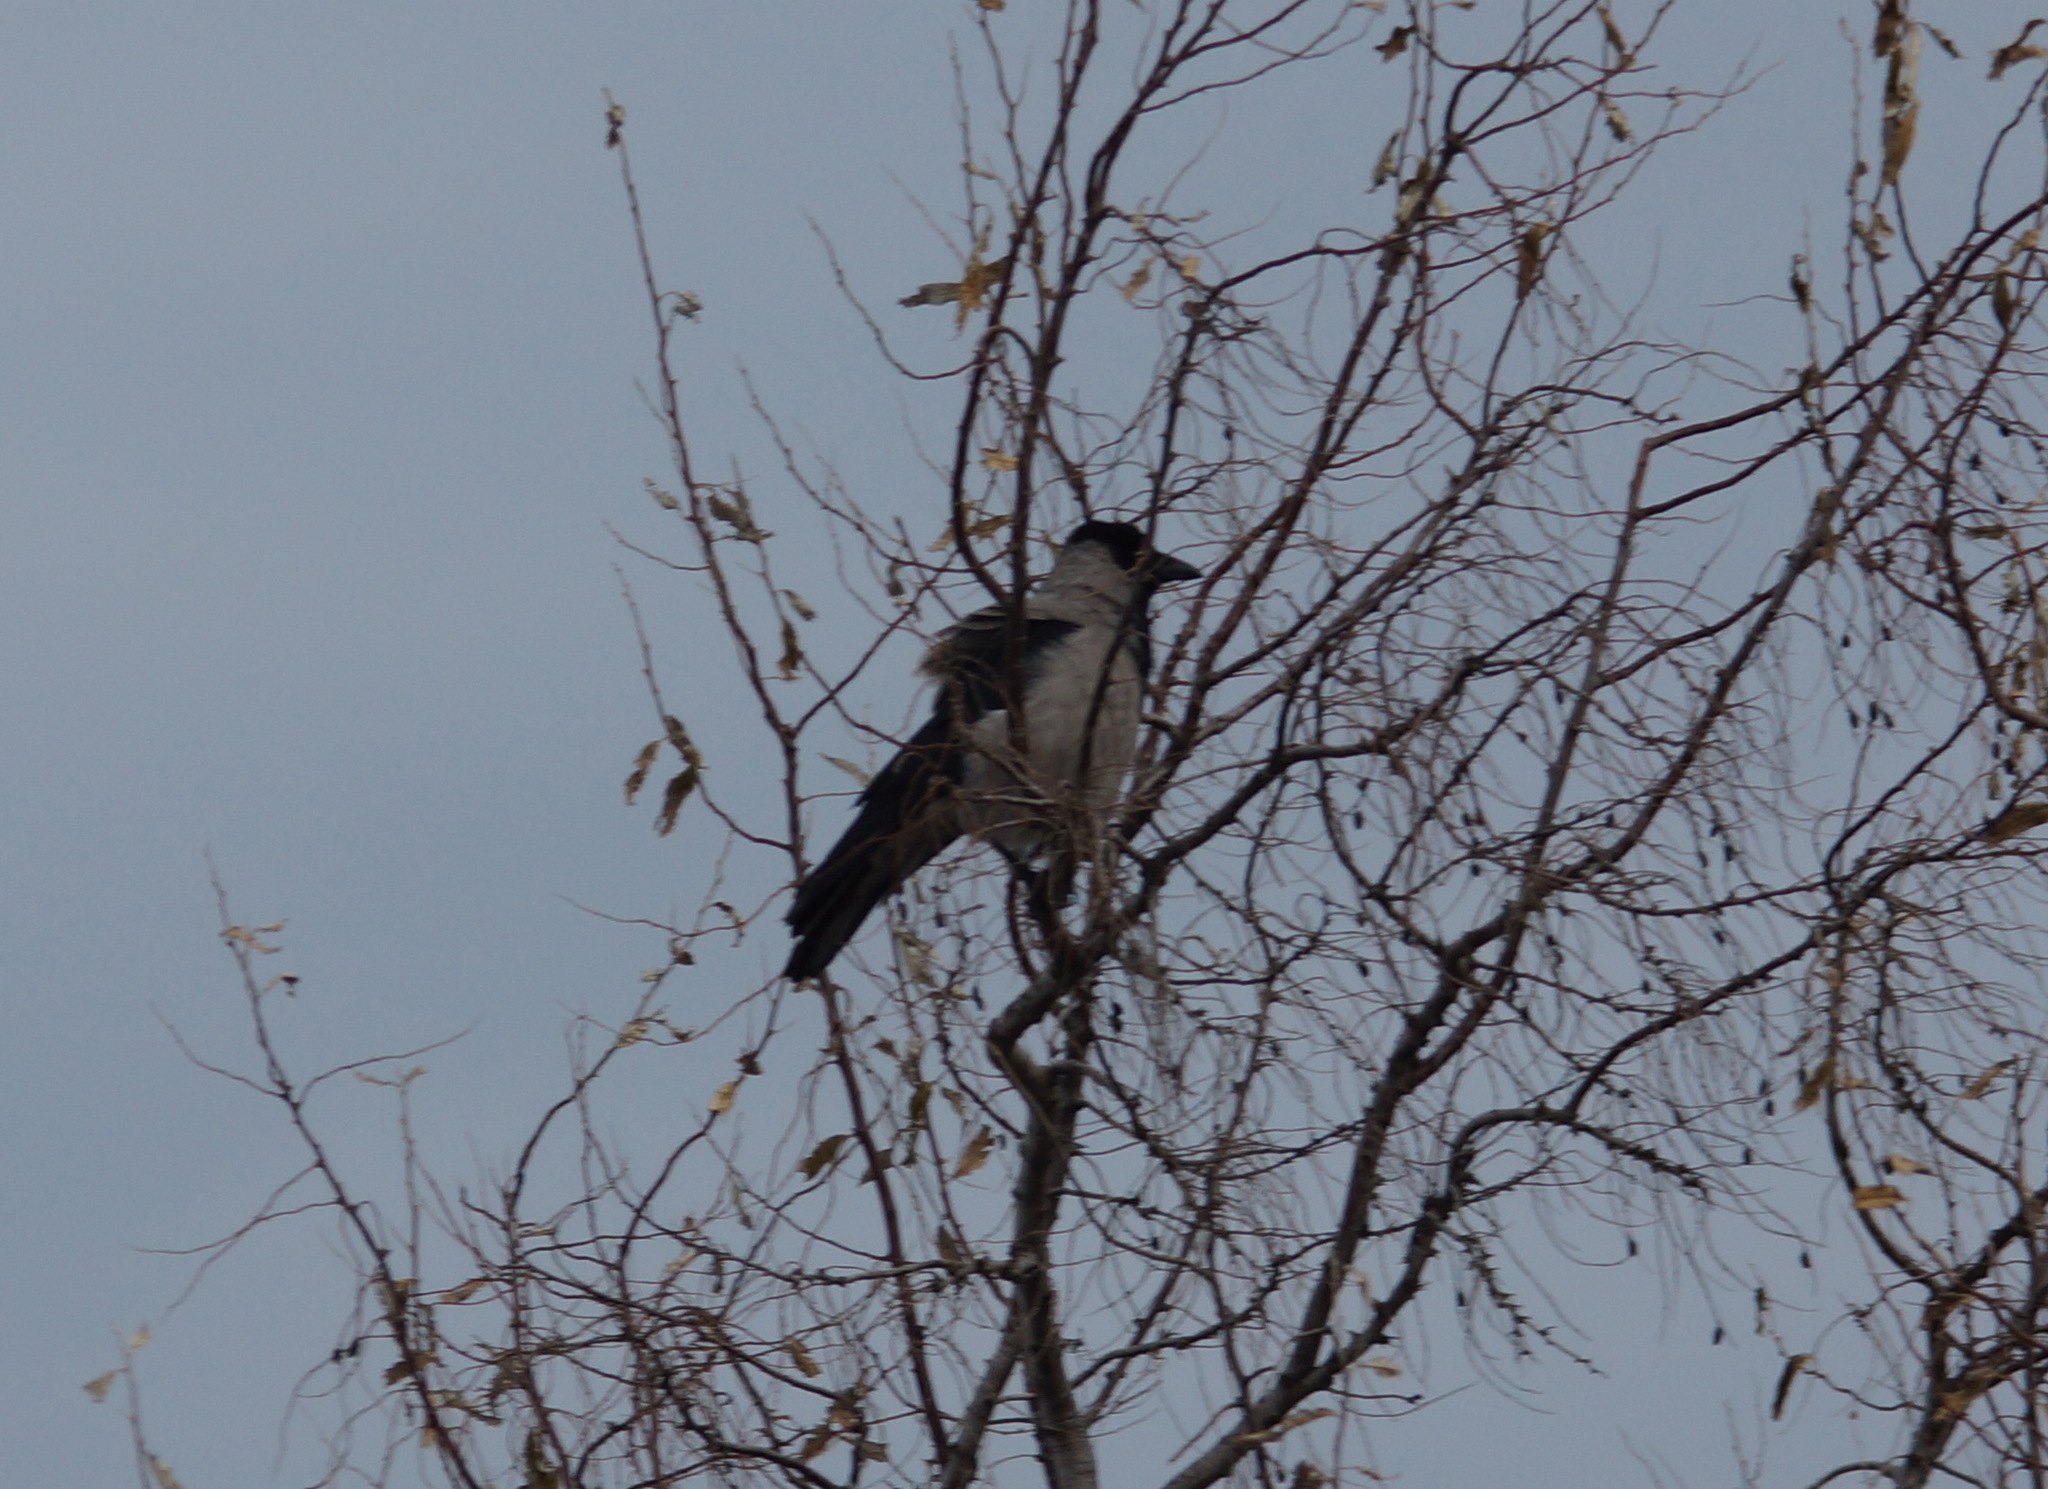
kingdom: Animalia
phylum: Chordata
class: Aves
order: Passeriformes
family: Corvidae
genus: Corvus
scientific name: Corvus cornix
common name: Hooded crow
